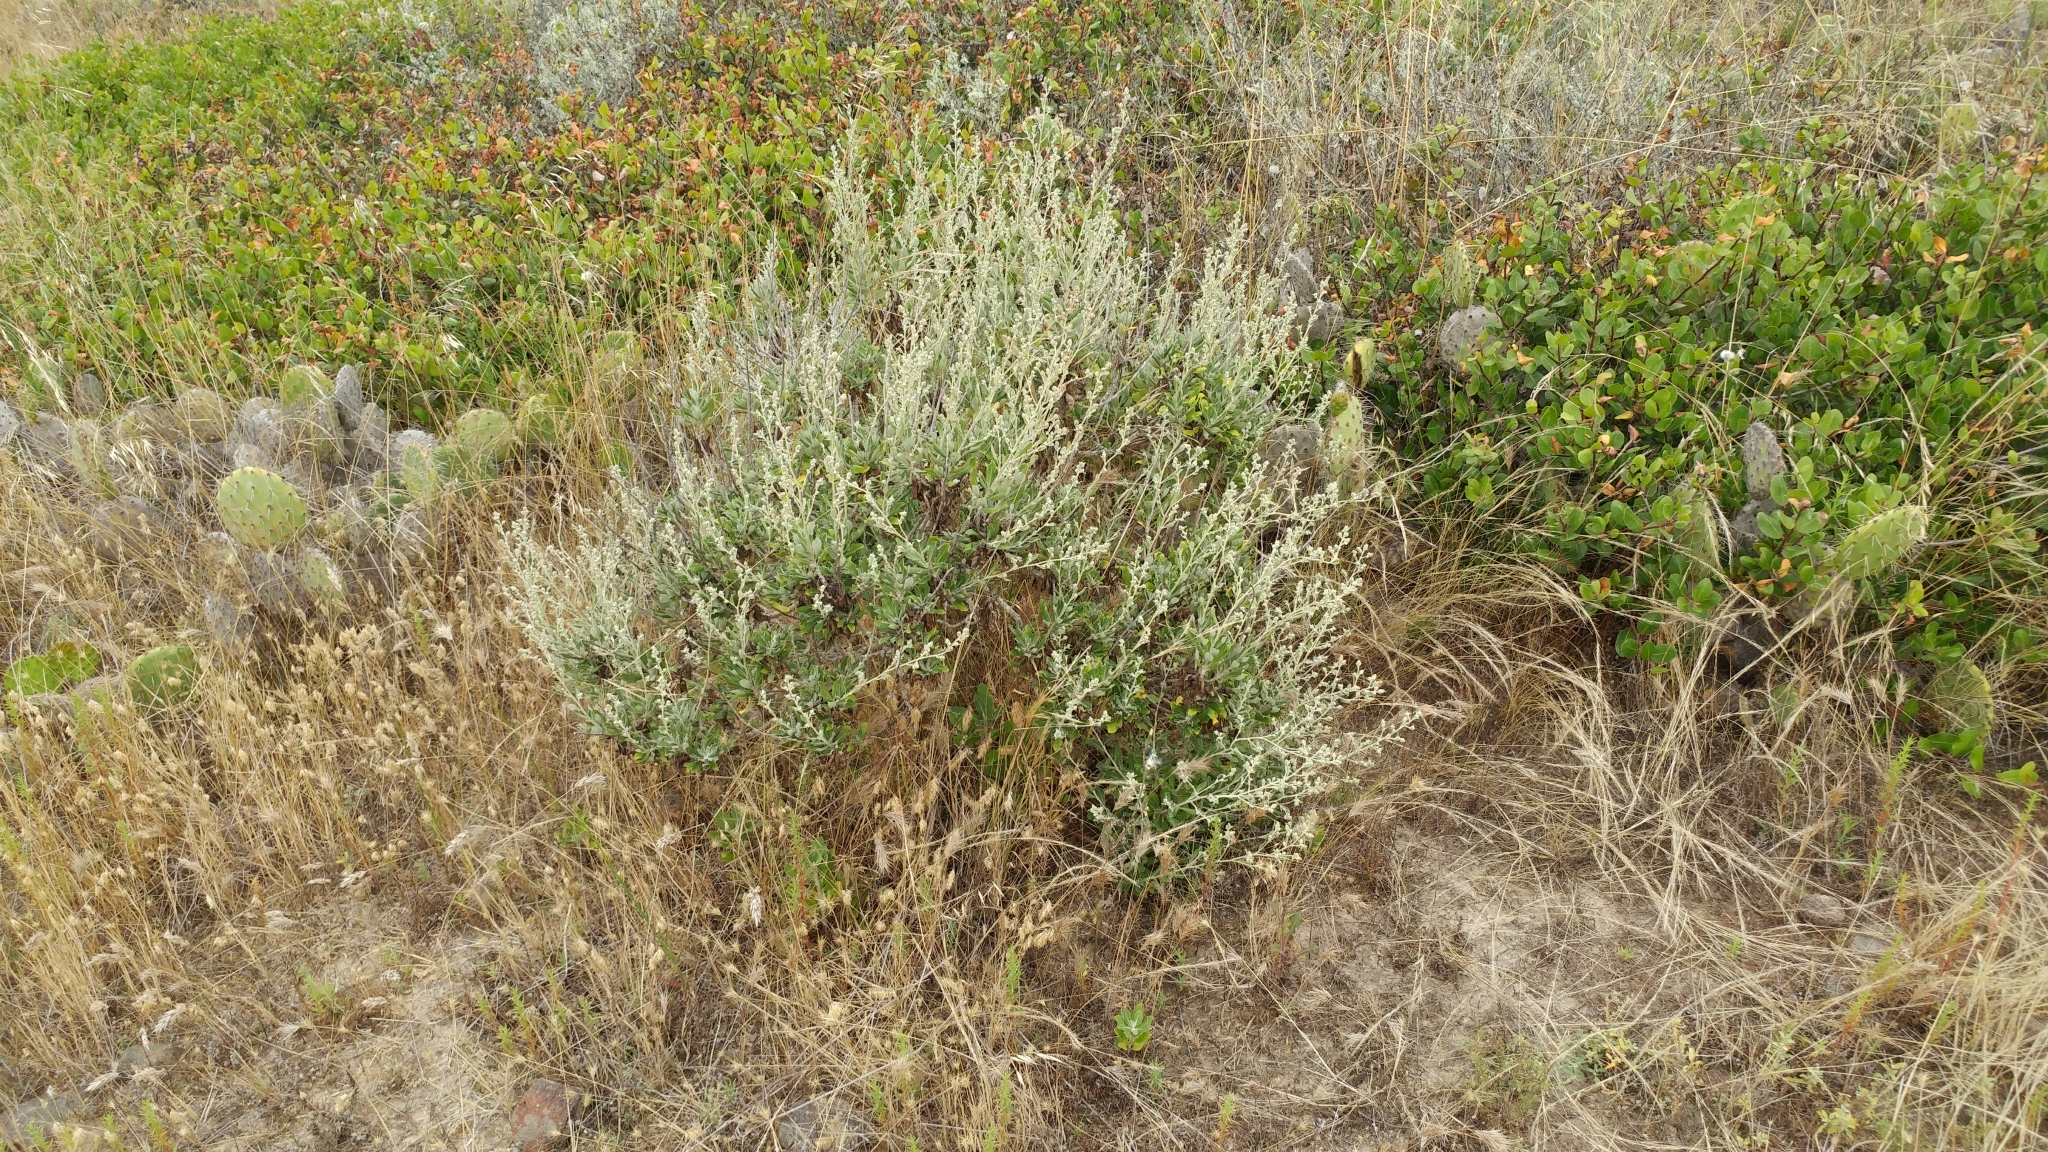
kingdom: Plantae
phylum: Tracheophyta
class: Magnoliopsida
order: Asterales
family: Asteraceae
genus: Hazardia
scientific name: Hazardia cana
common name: San clemente island bristleweed
